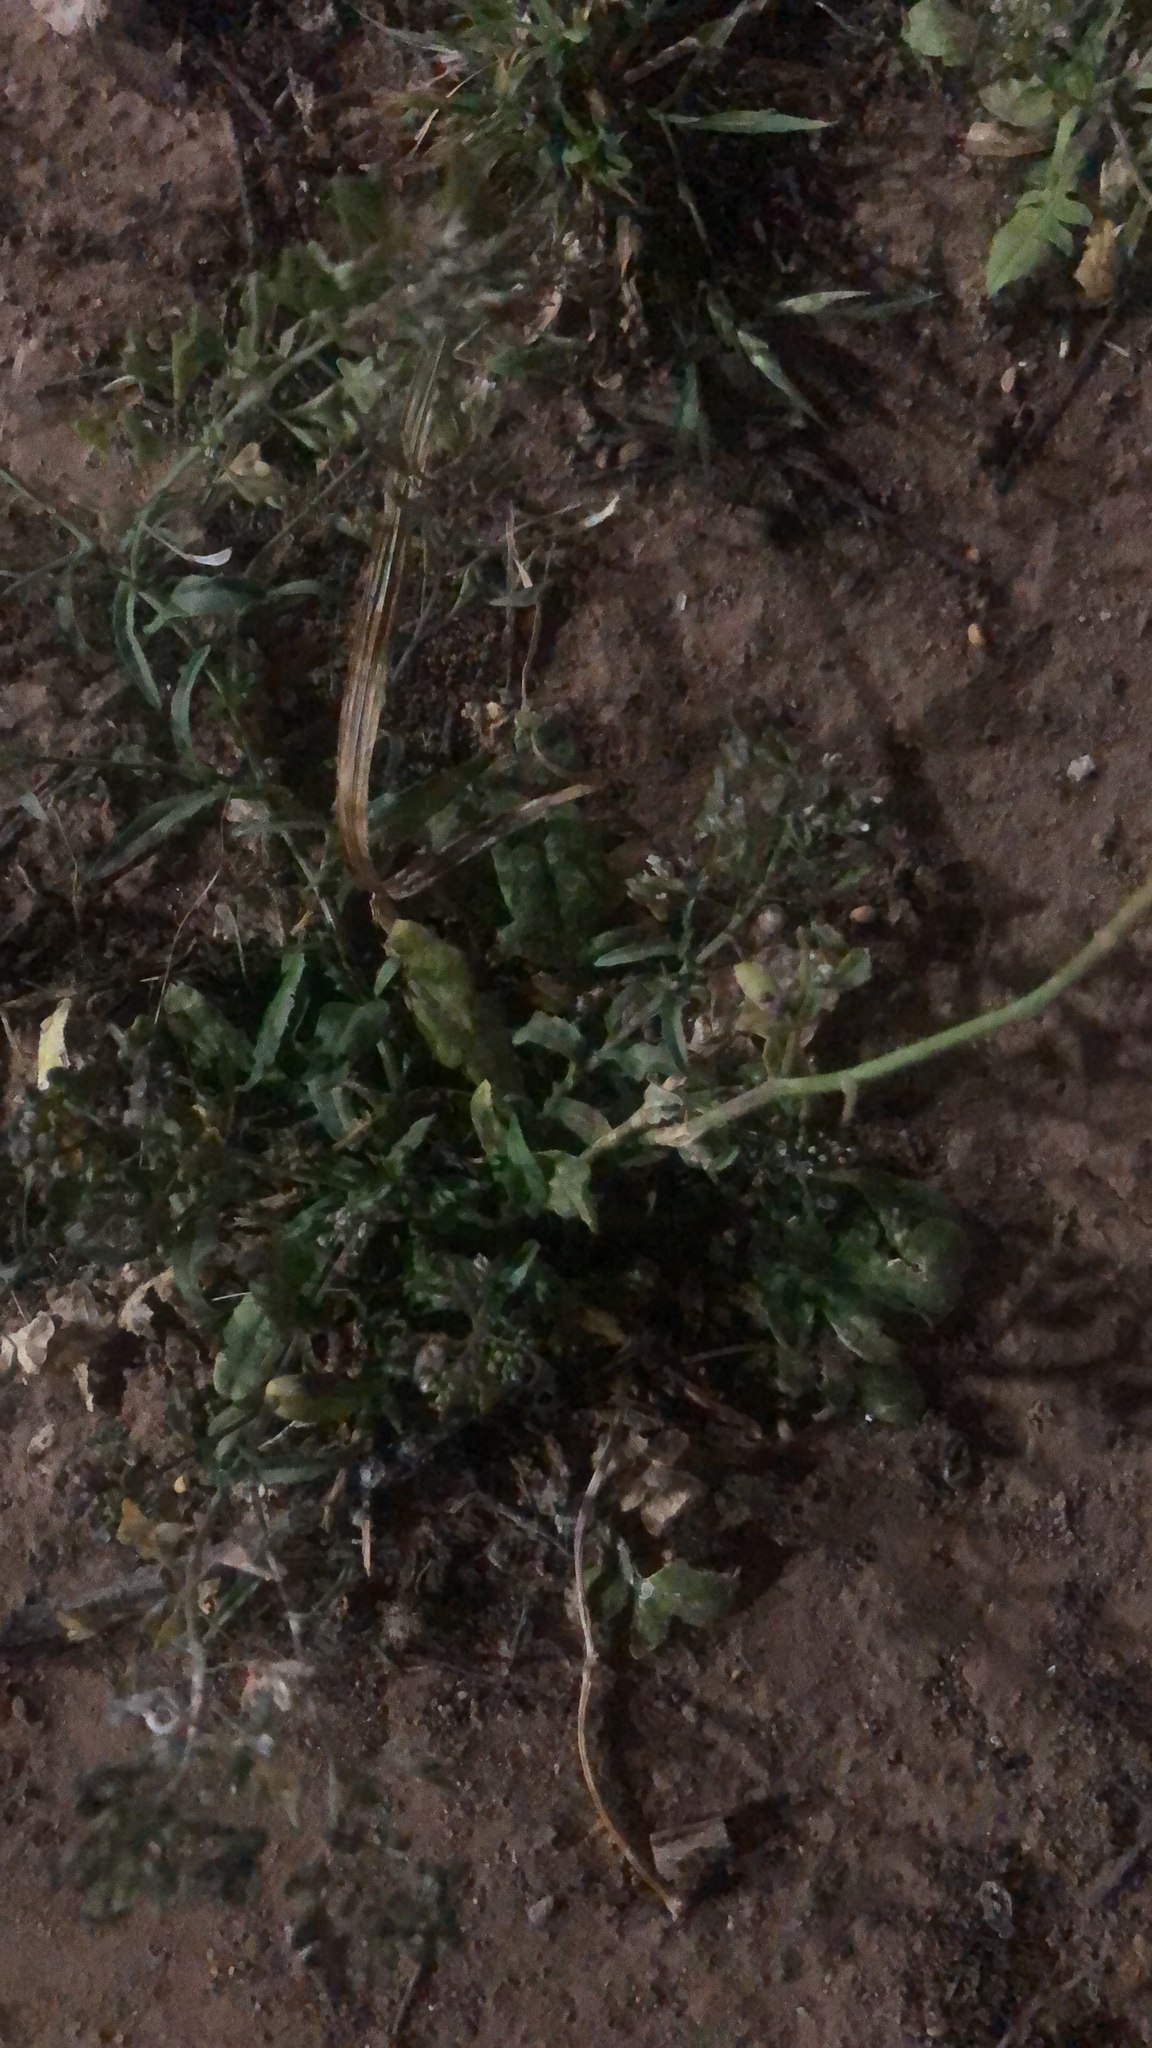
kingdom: Plantae
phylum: Tracheophyta
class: Magnoliopsida
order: Brassicales
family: Brassicaceae
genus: Capsella
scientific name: Capsella bursa-pastoris
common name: Shepherd's purse
